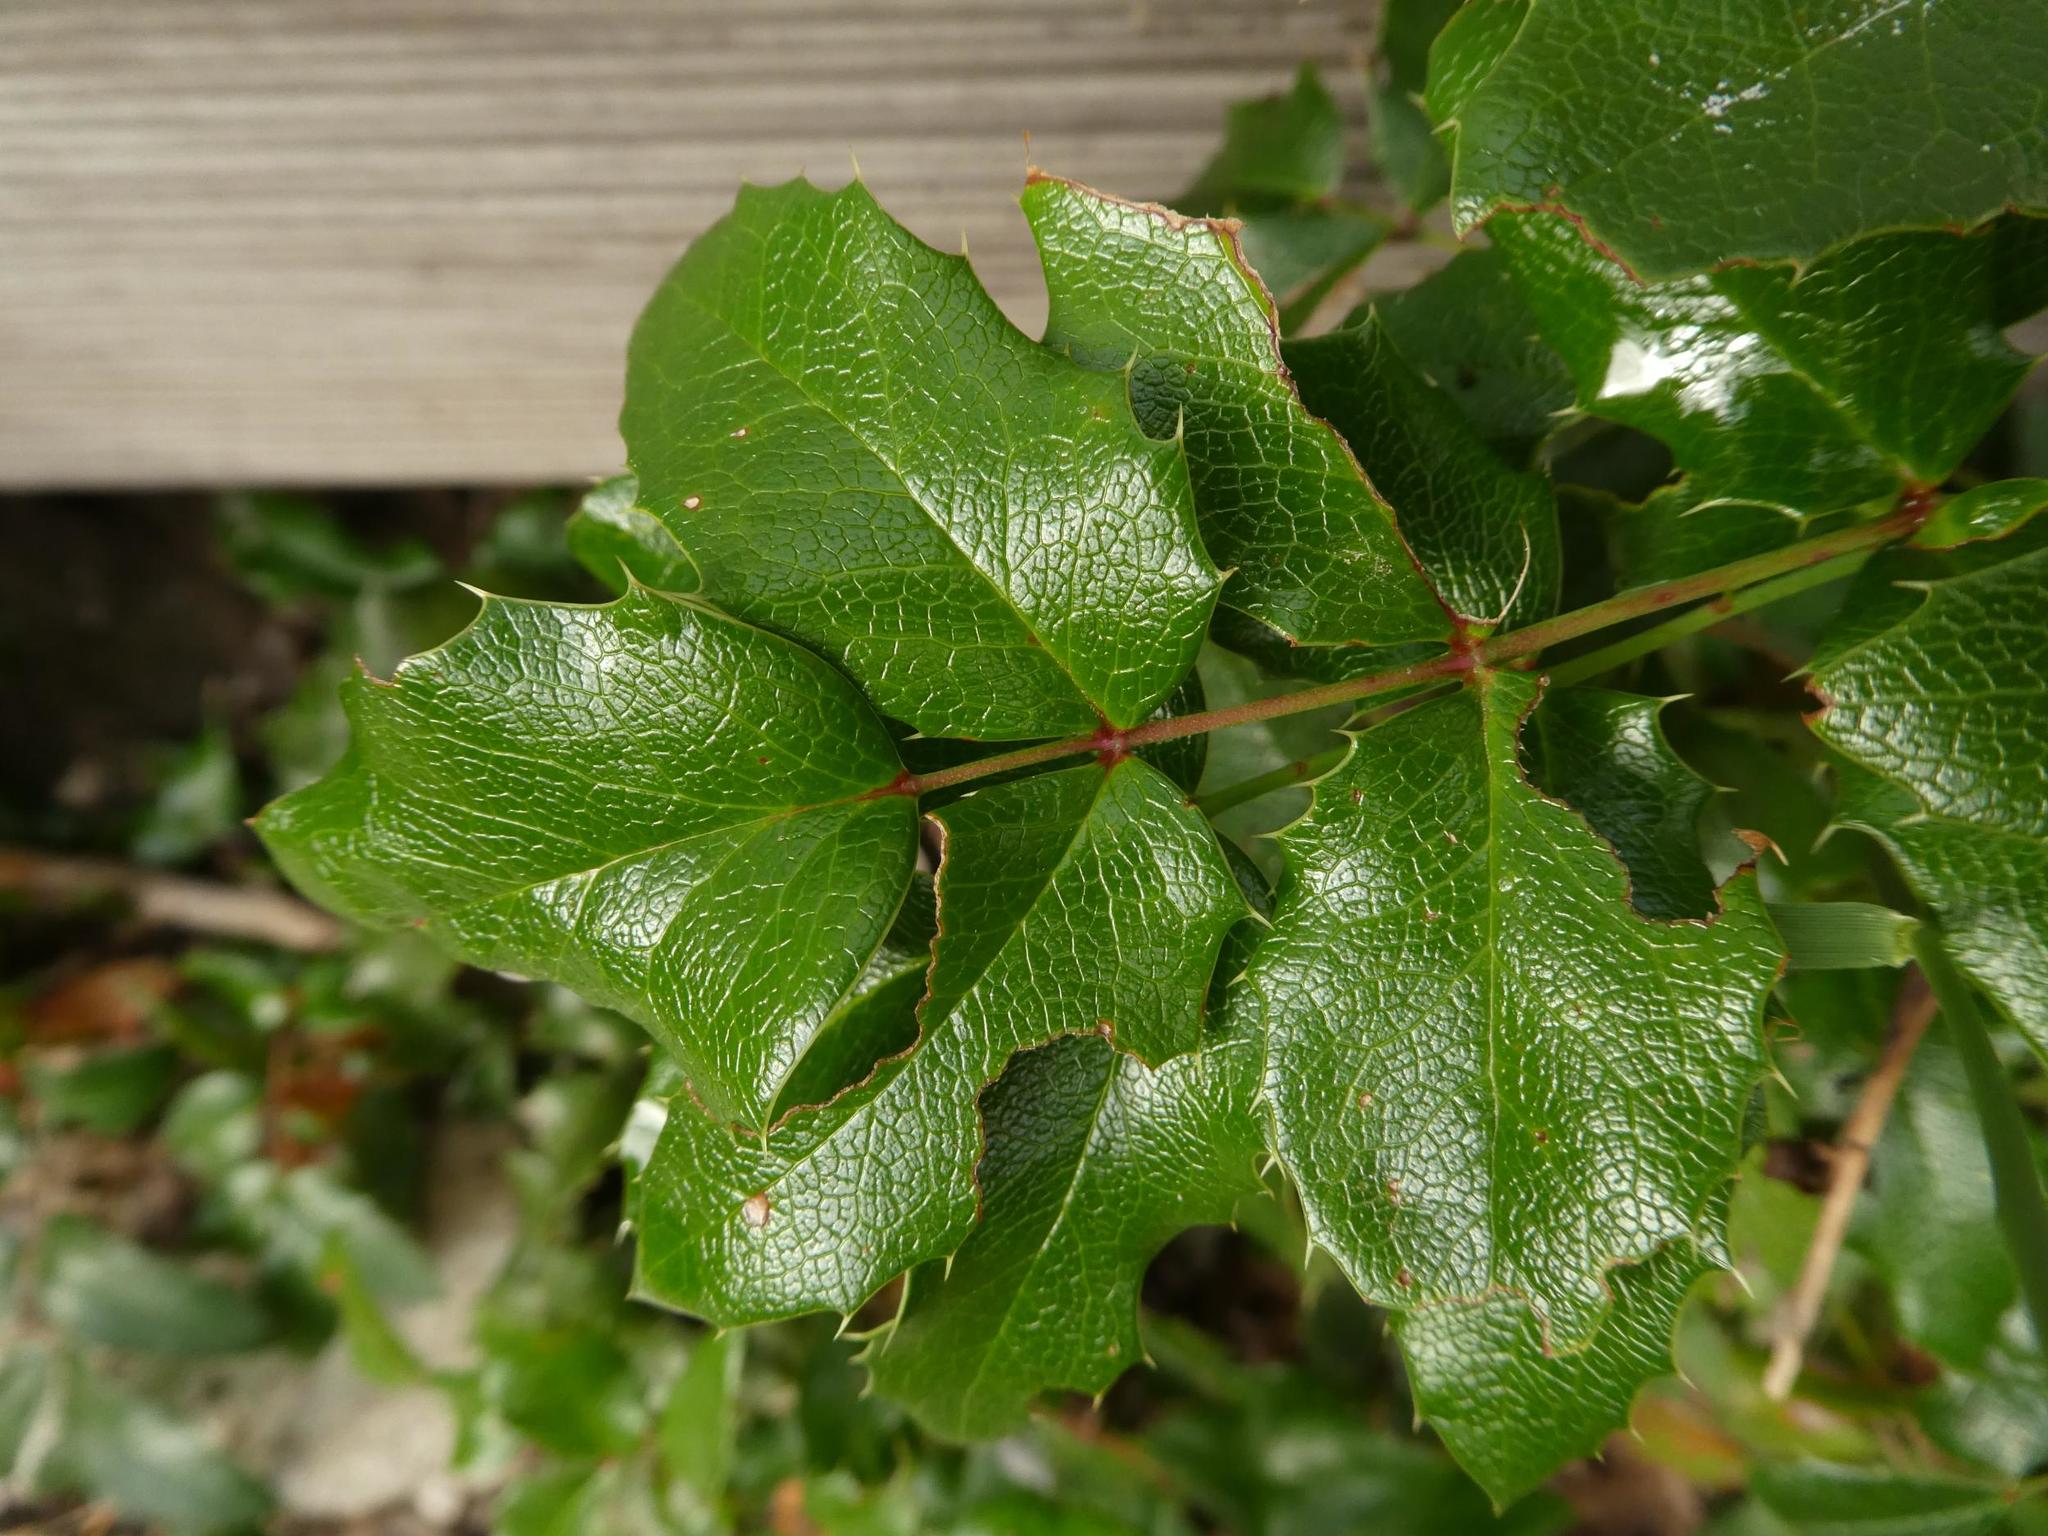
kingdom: Plantae
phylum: Tracheophyta
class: Magnoliopsida
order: Ranunculales
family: Berberidaceae
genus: Mahonia
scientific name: Mahonia aquifolium
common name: Oregon-grape
